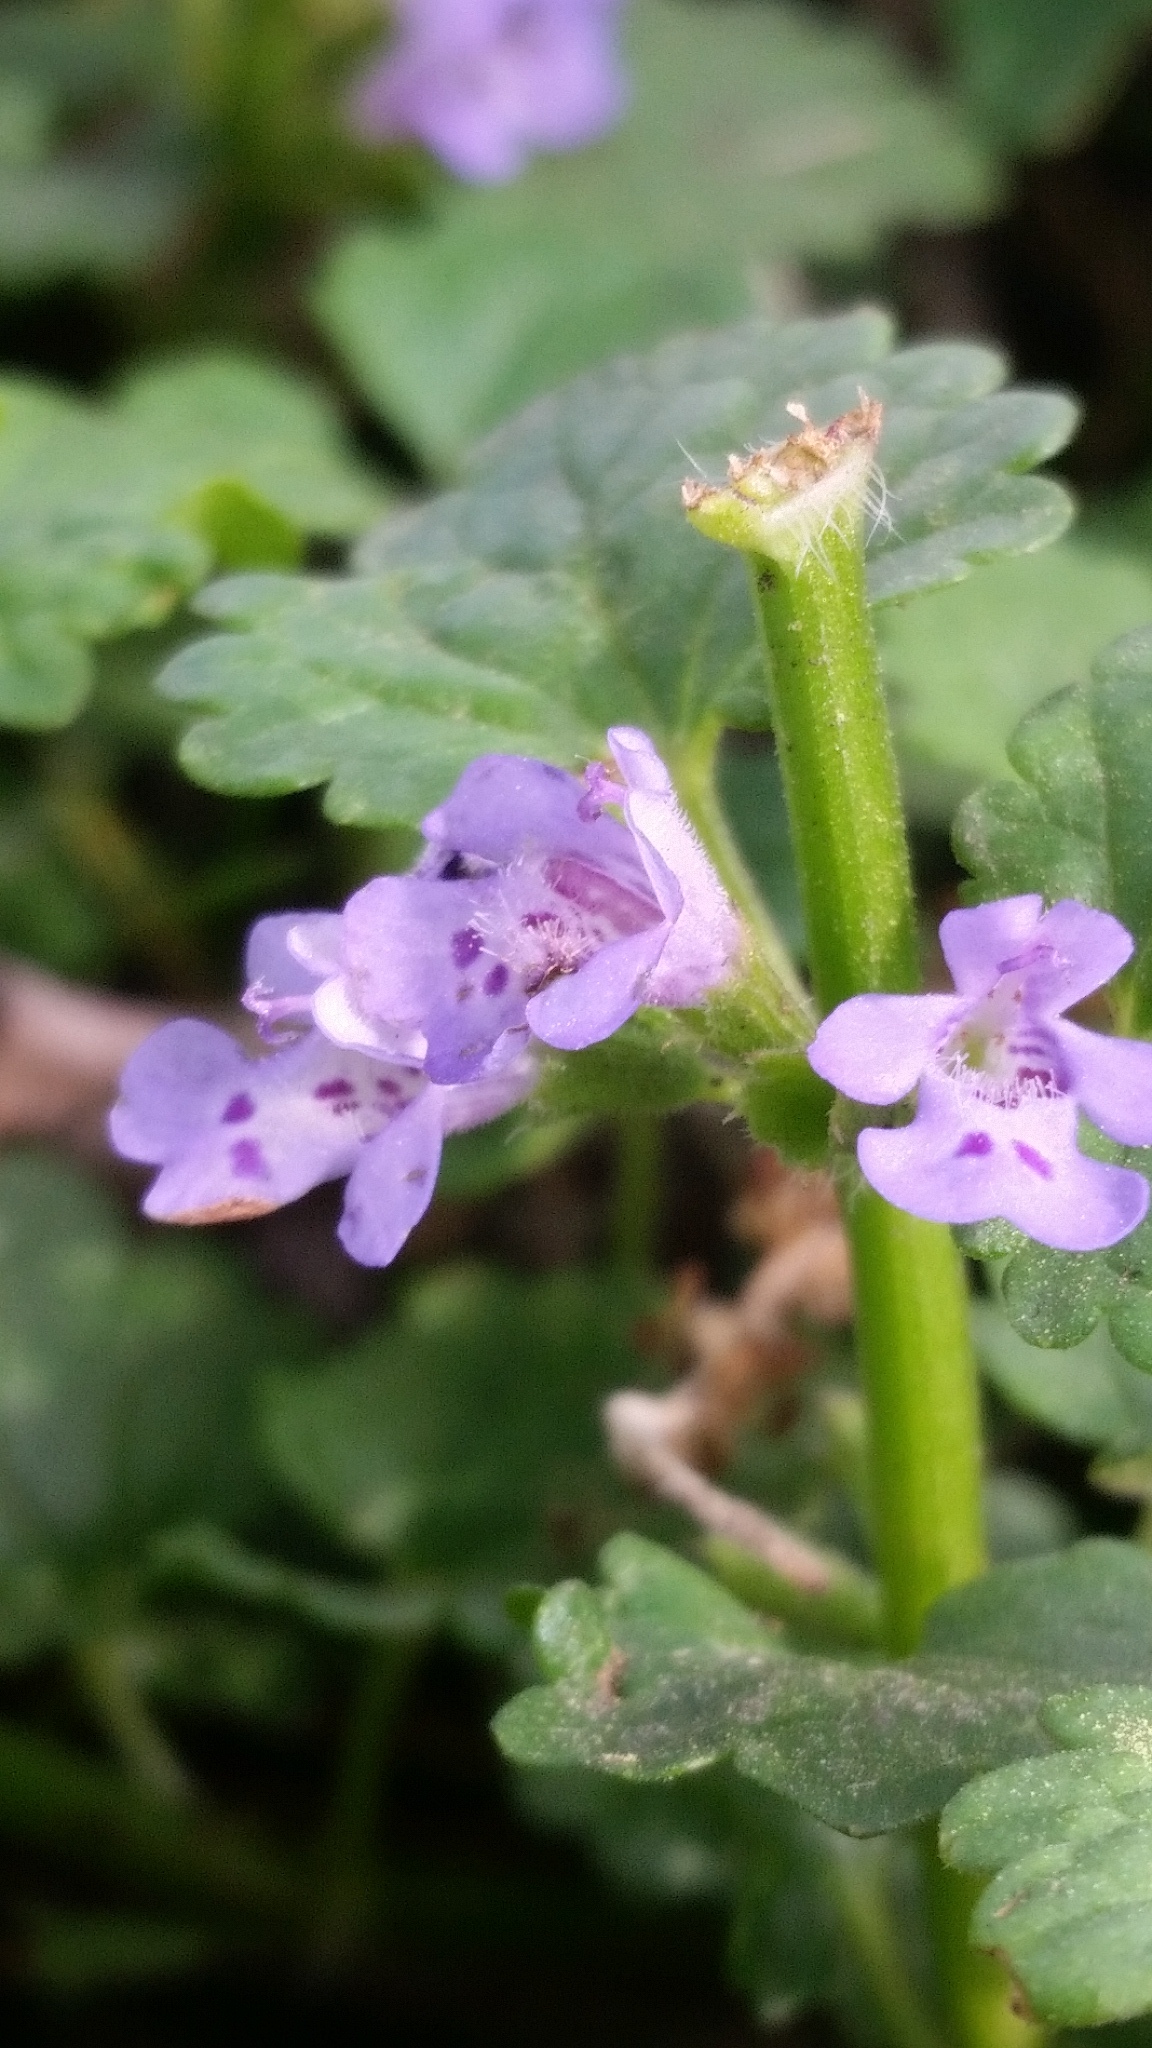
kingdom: Plantae
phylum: Tracheophyta
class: Magnoliopsida
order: Lamiales
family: Lamiaceae
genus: Glechoma
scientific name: Glechoma hederacea
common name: Ground ivy
